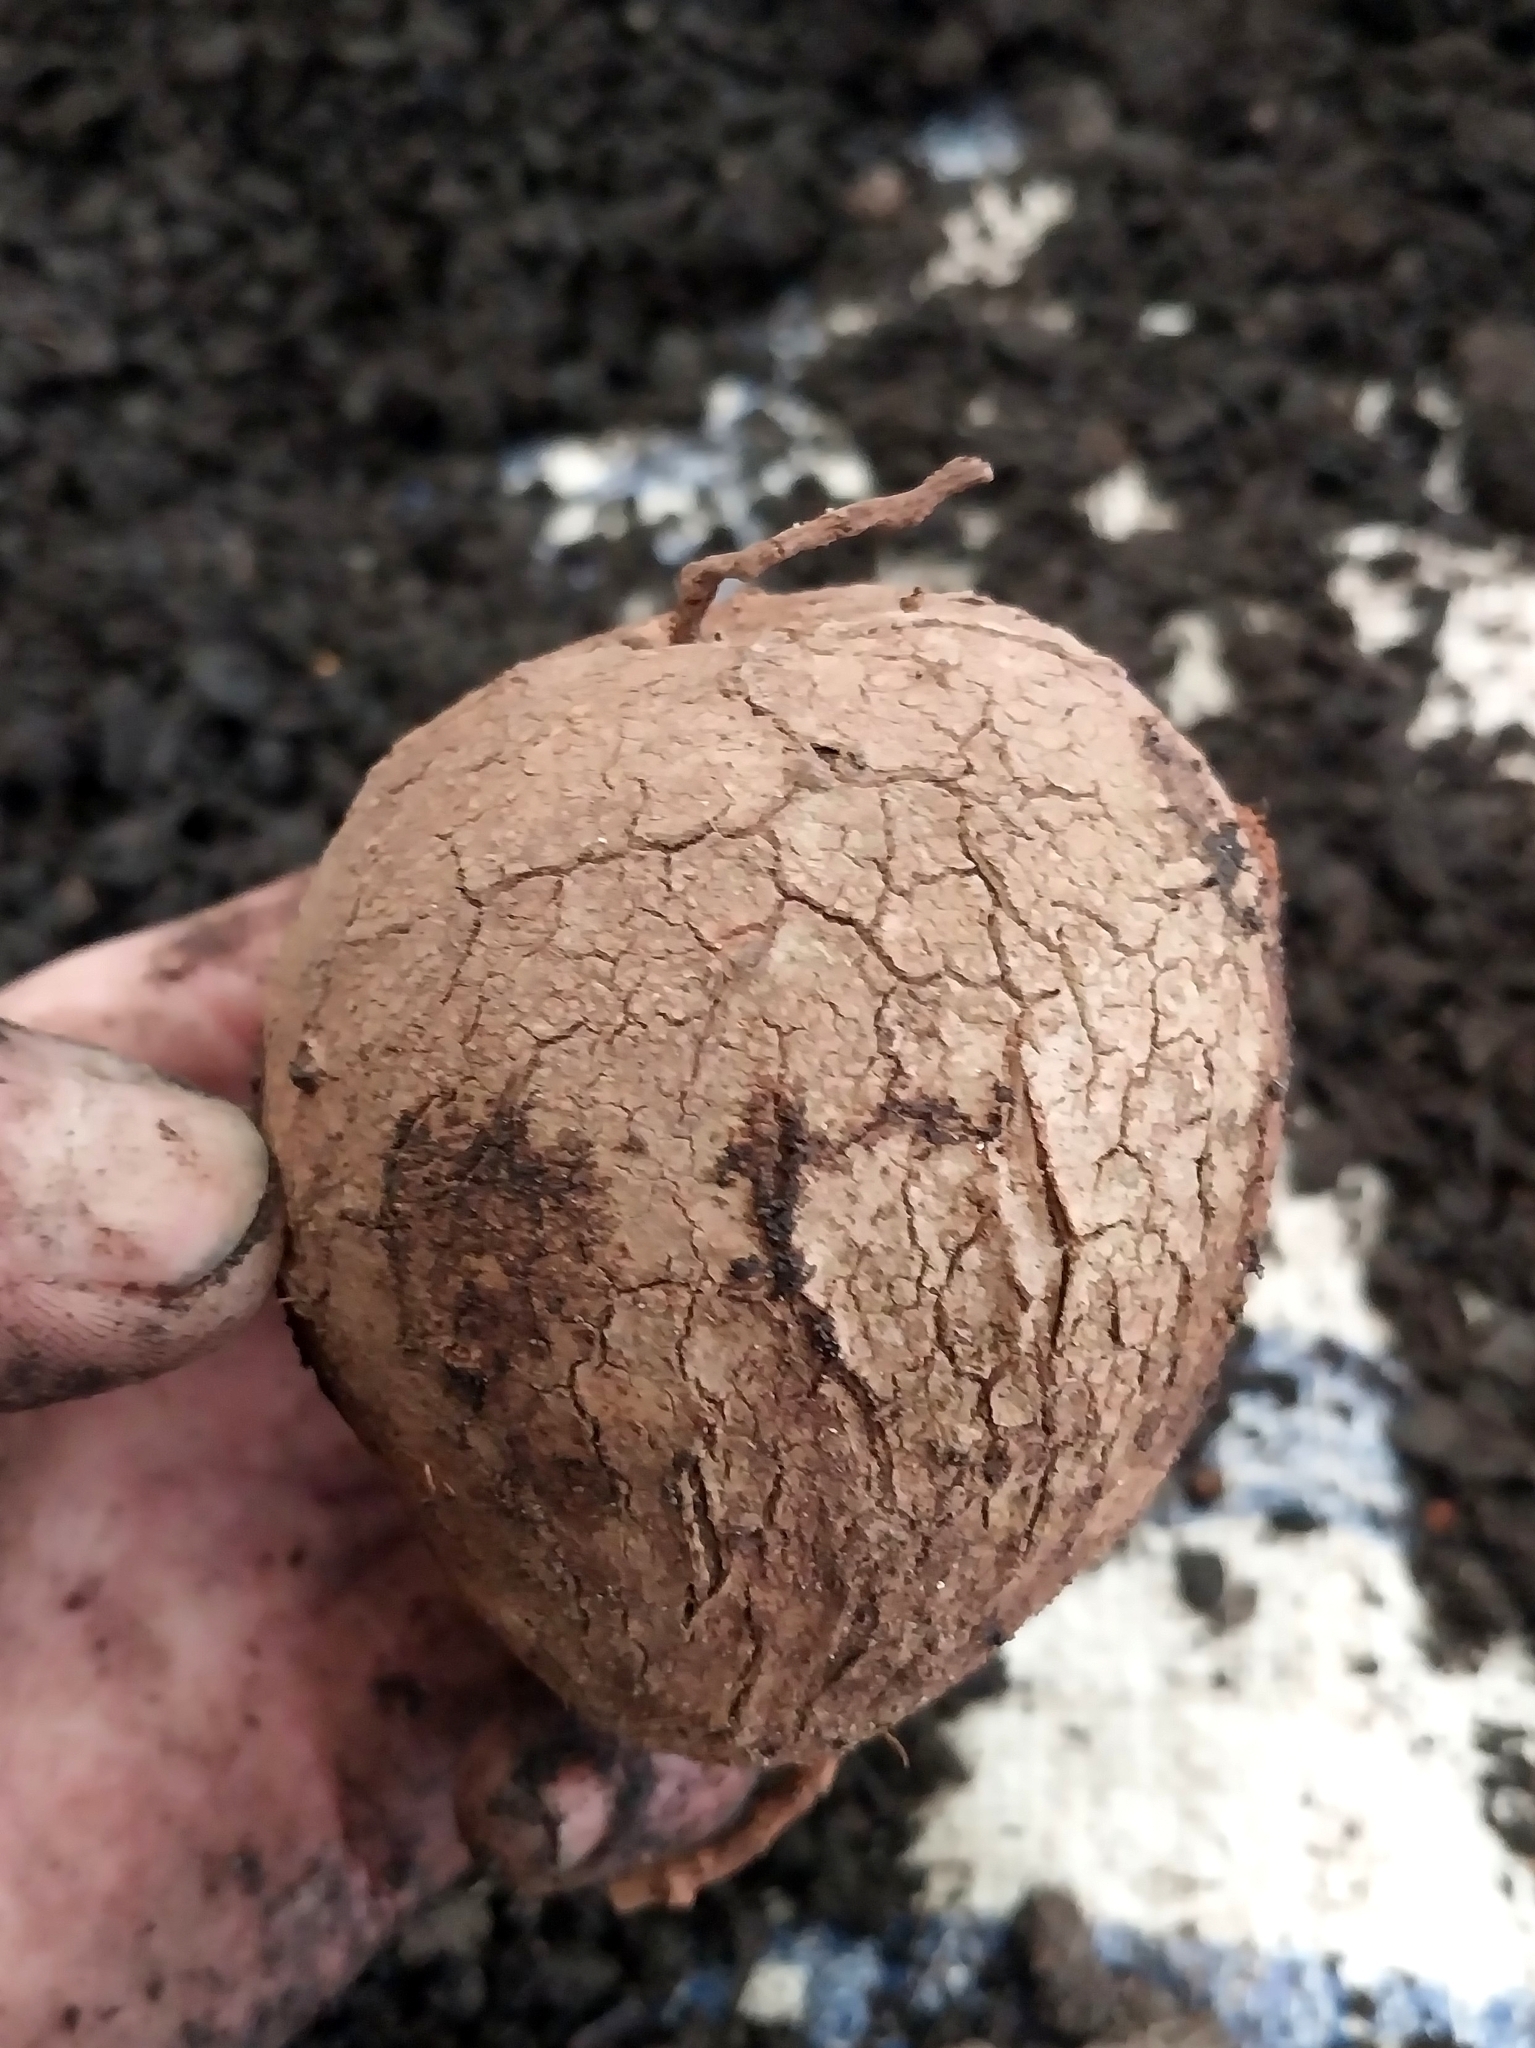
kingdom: Plantae
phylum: Tracheophyta
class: Magnoliopsida
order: Vitales
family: Vitaceae
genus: Rhoicissus
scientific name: Rhoicissus digitata
